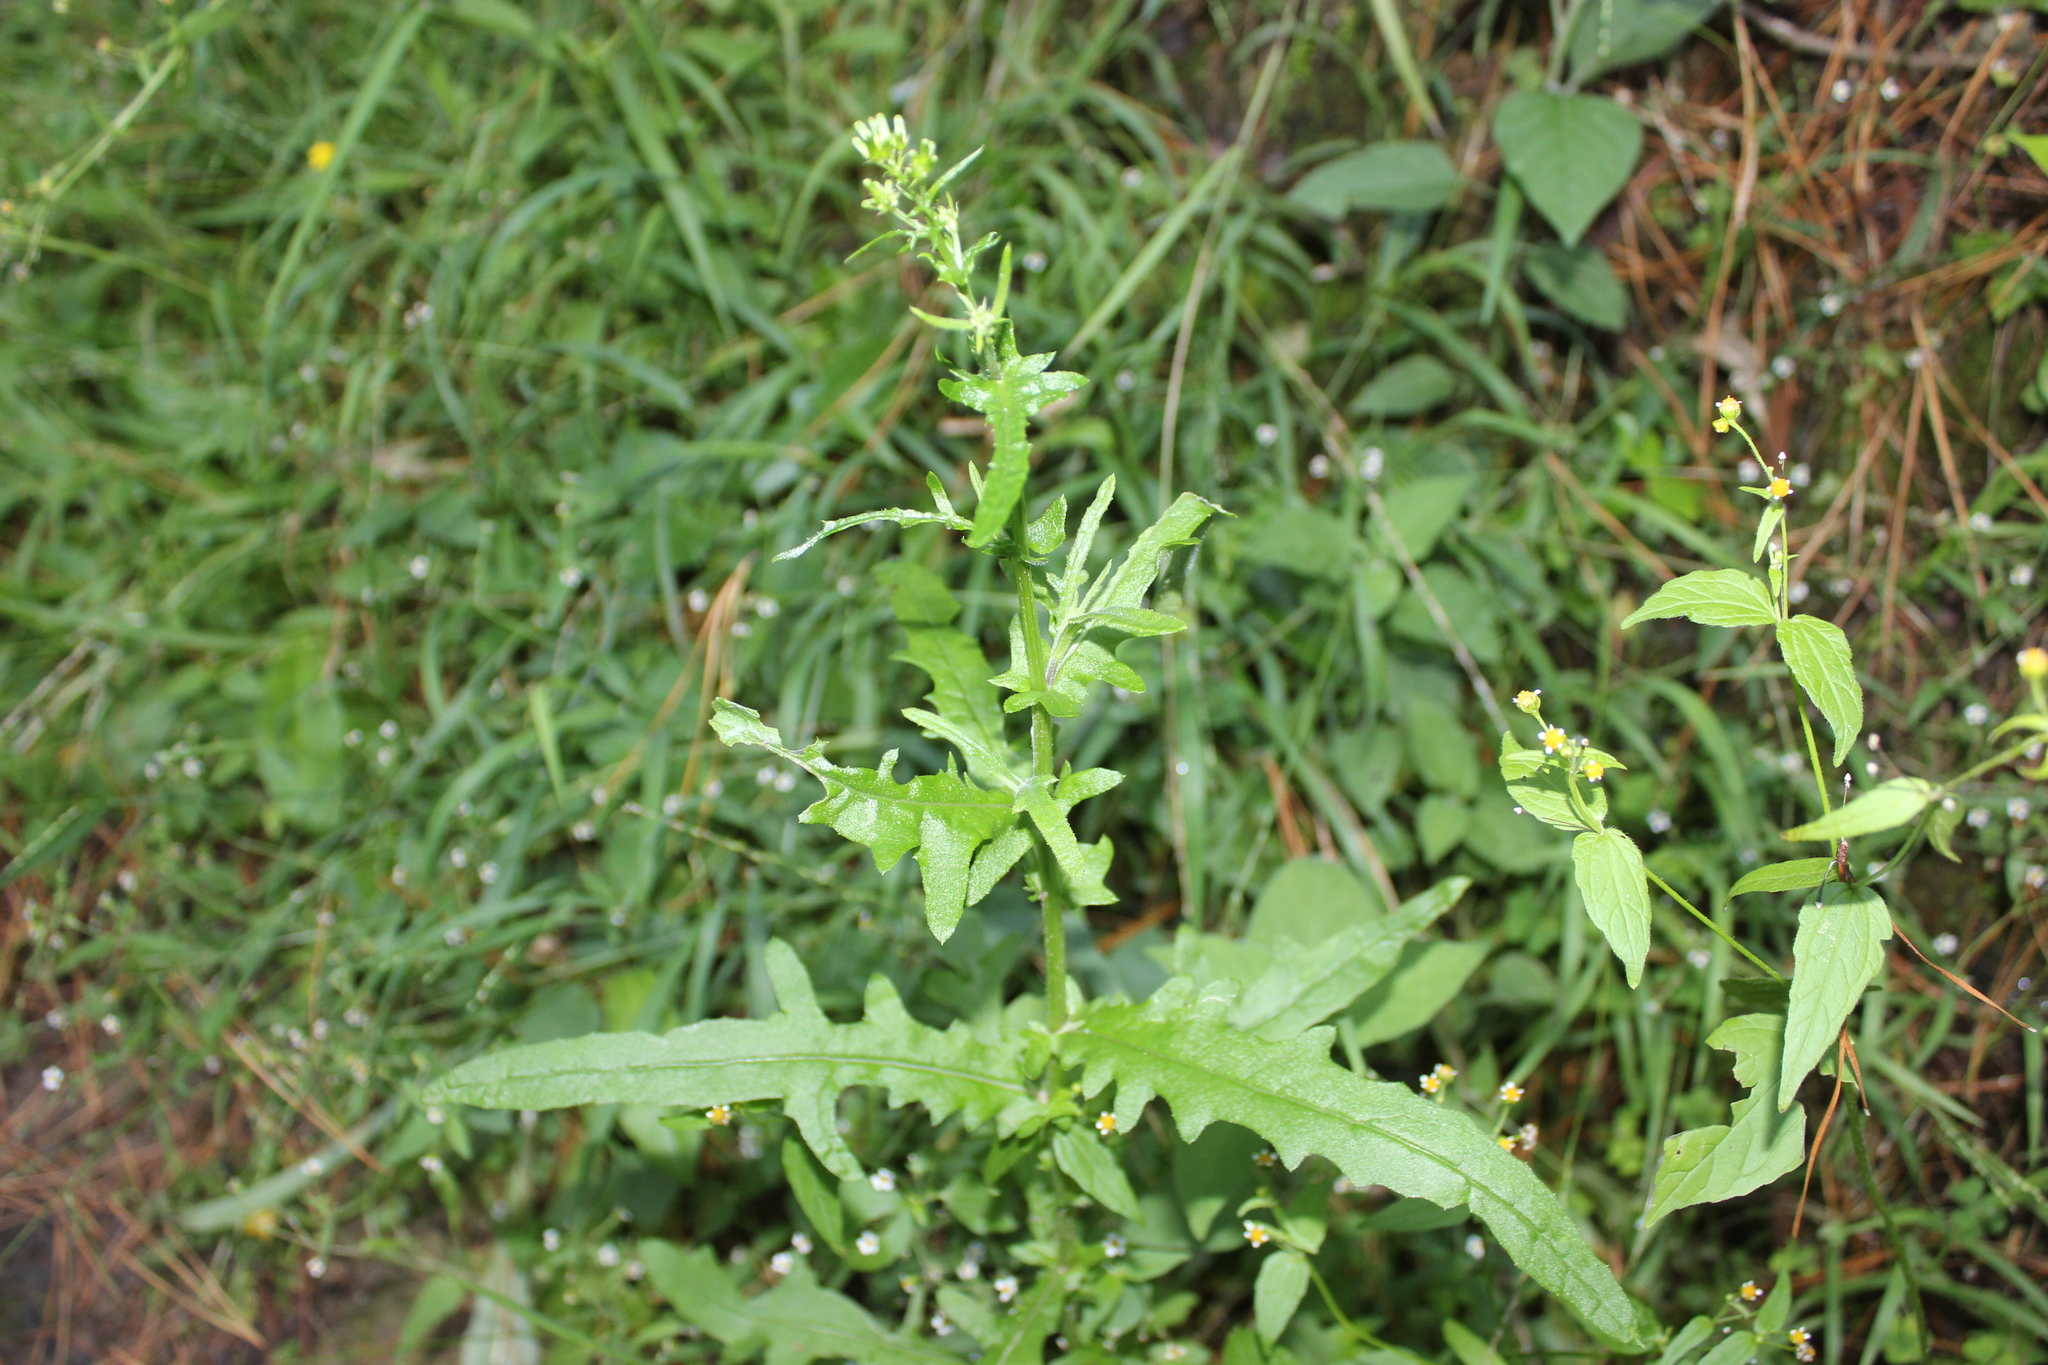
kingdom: Plantae
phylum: Tracheophyta
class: Magnoliopsida
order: Asterales
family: Asteraceae
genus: Senecio
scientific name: Senecio hispidulus
